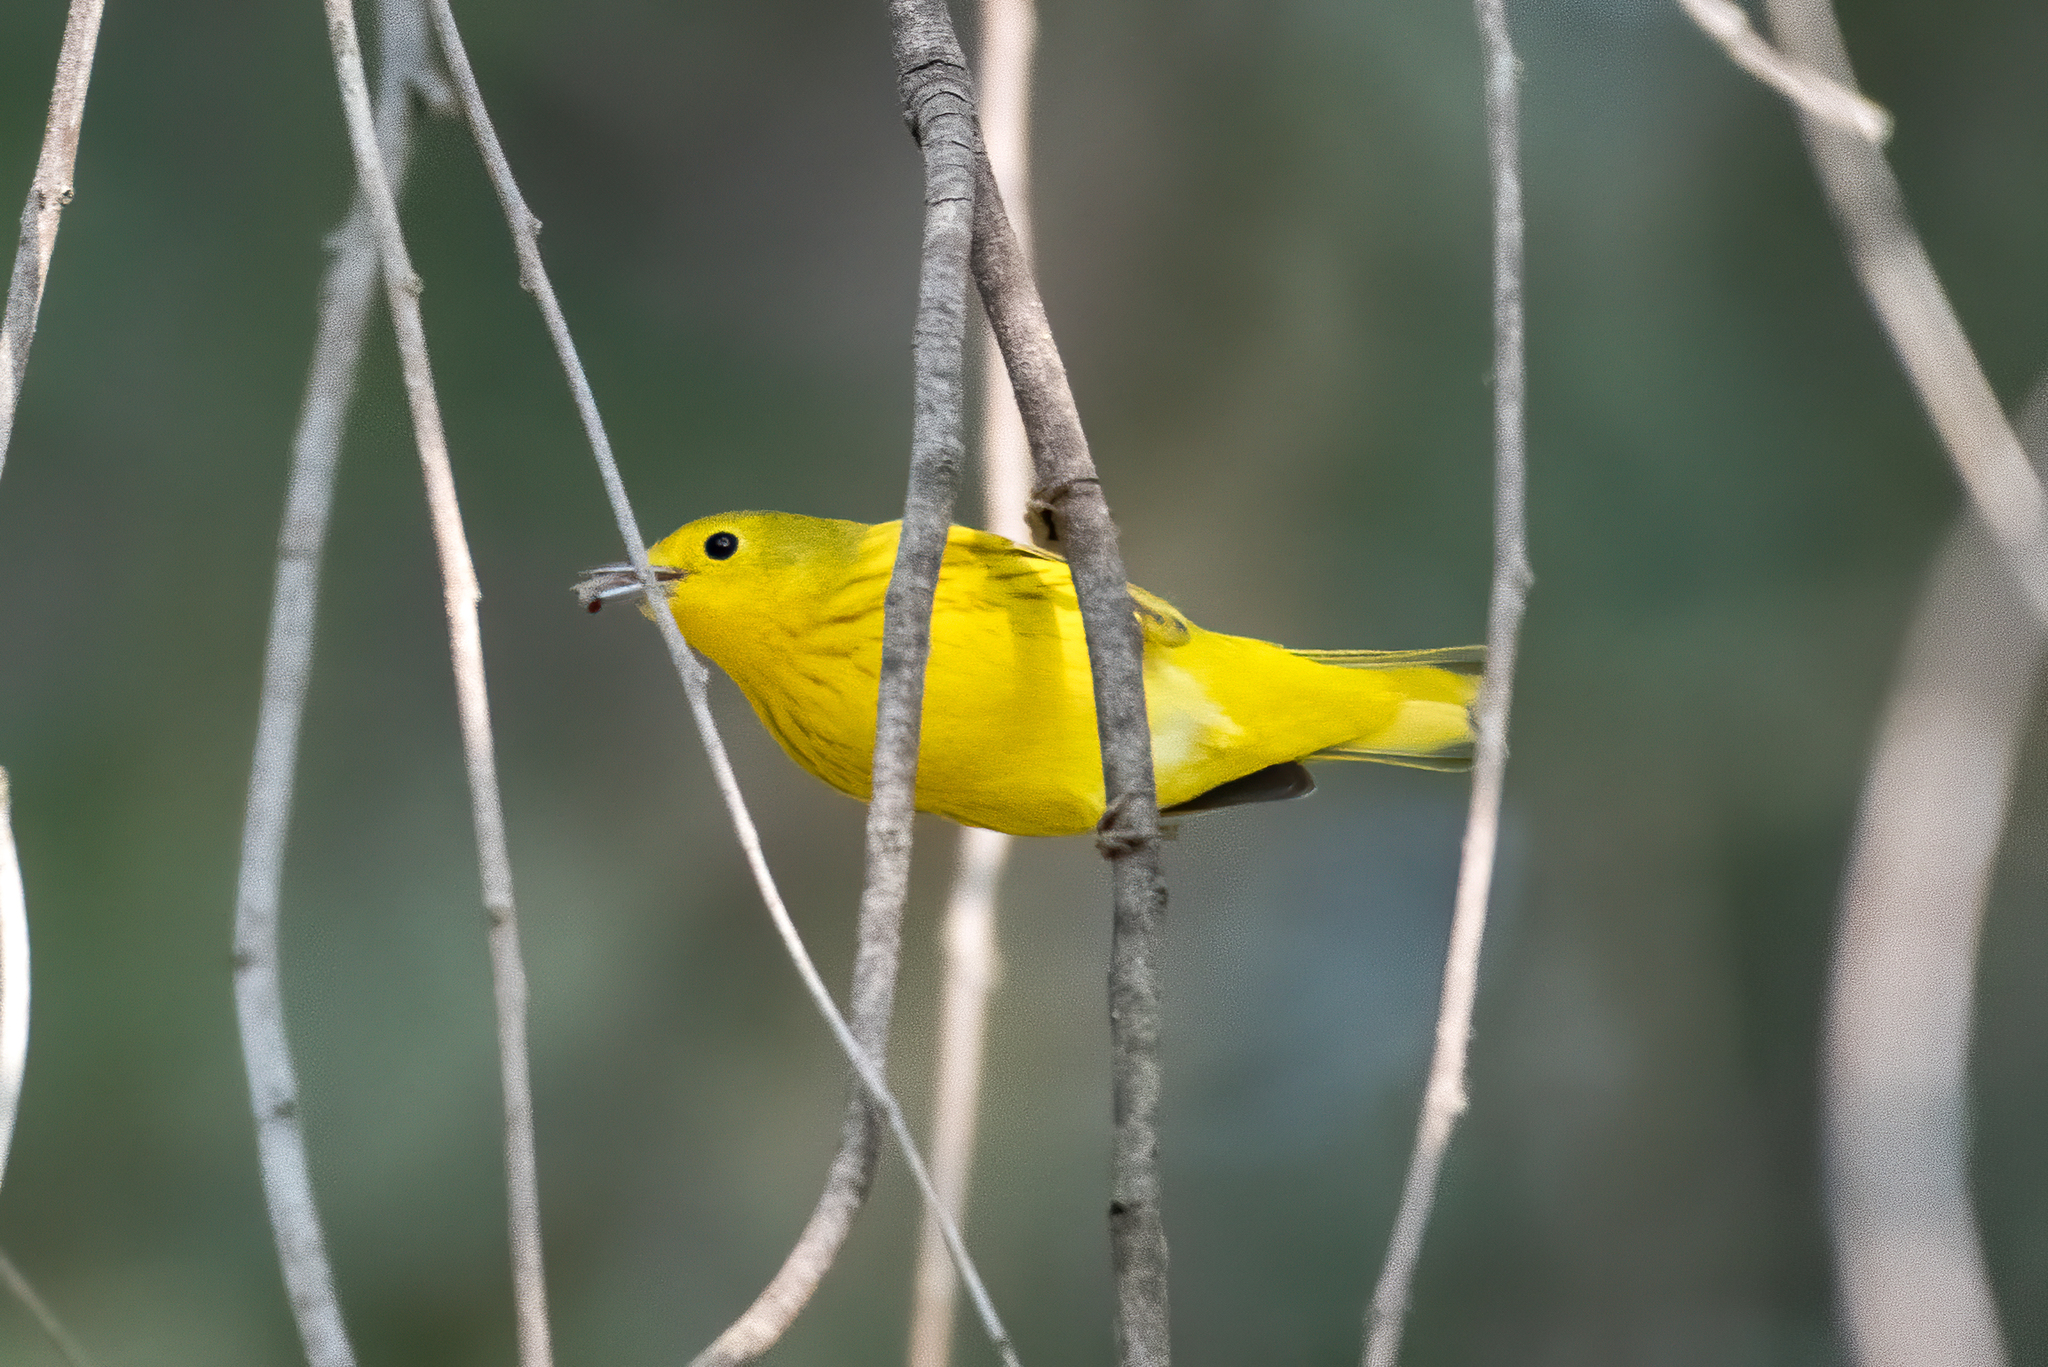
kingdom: Animalia
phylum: Chordata
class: Aves
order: Passeriformes
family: Parulidae
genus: Setophaga
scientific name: Setophaga petechia
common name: Yellow warbler
